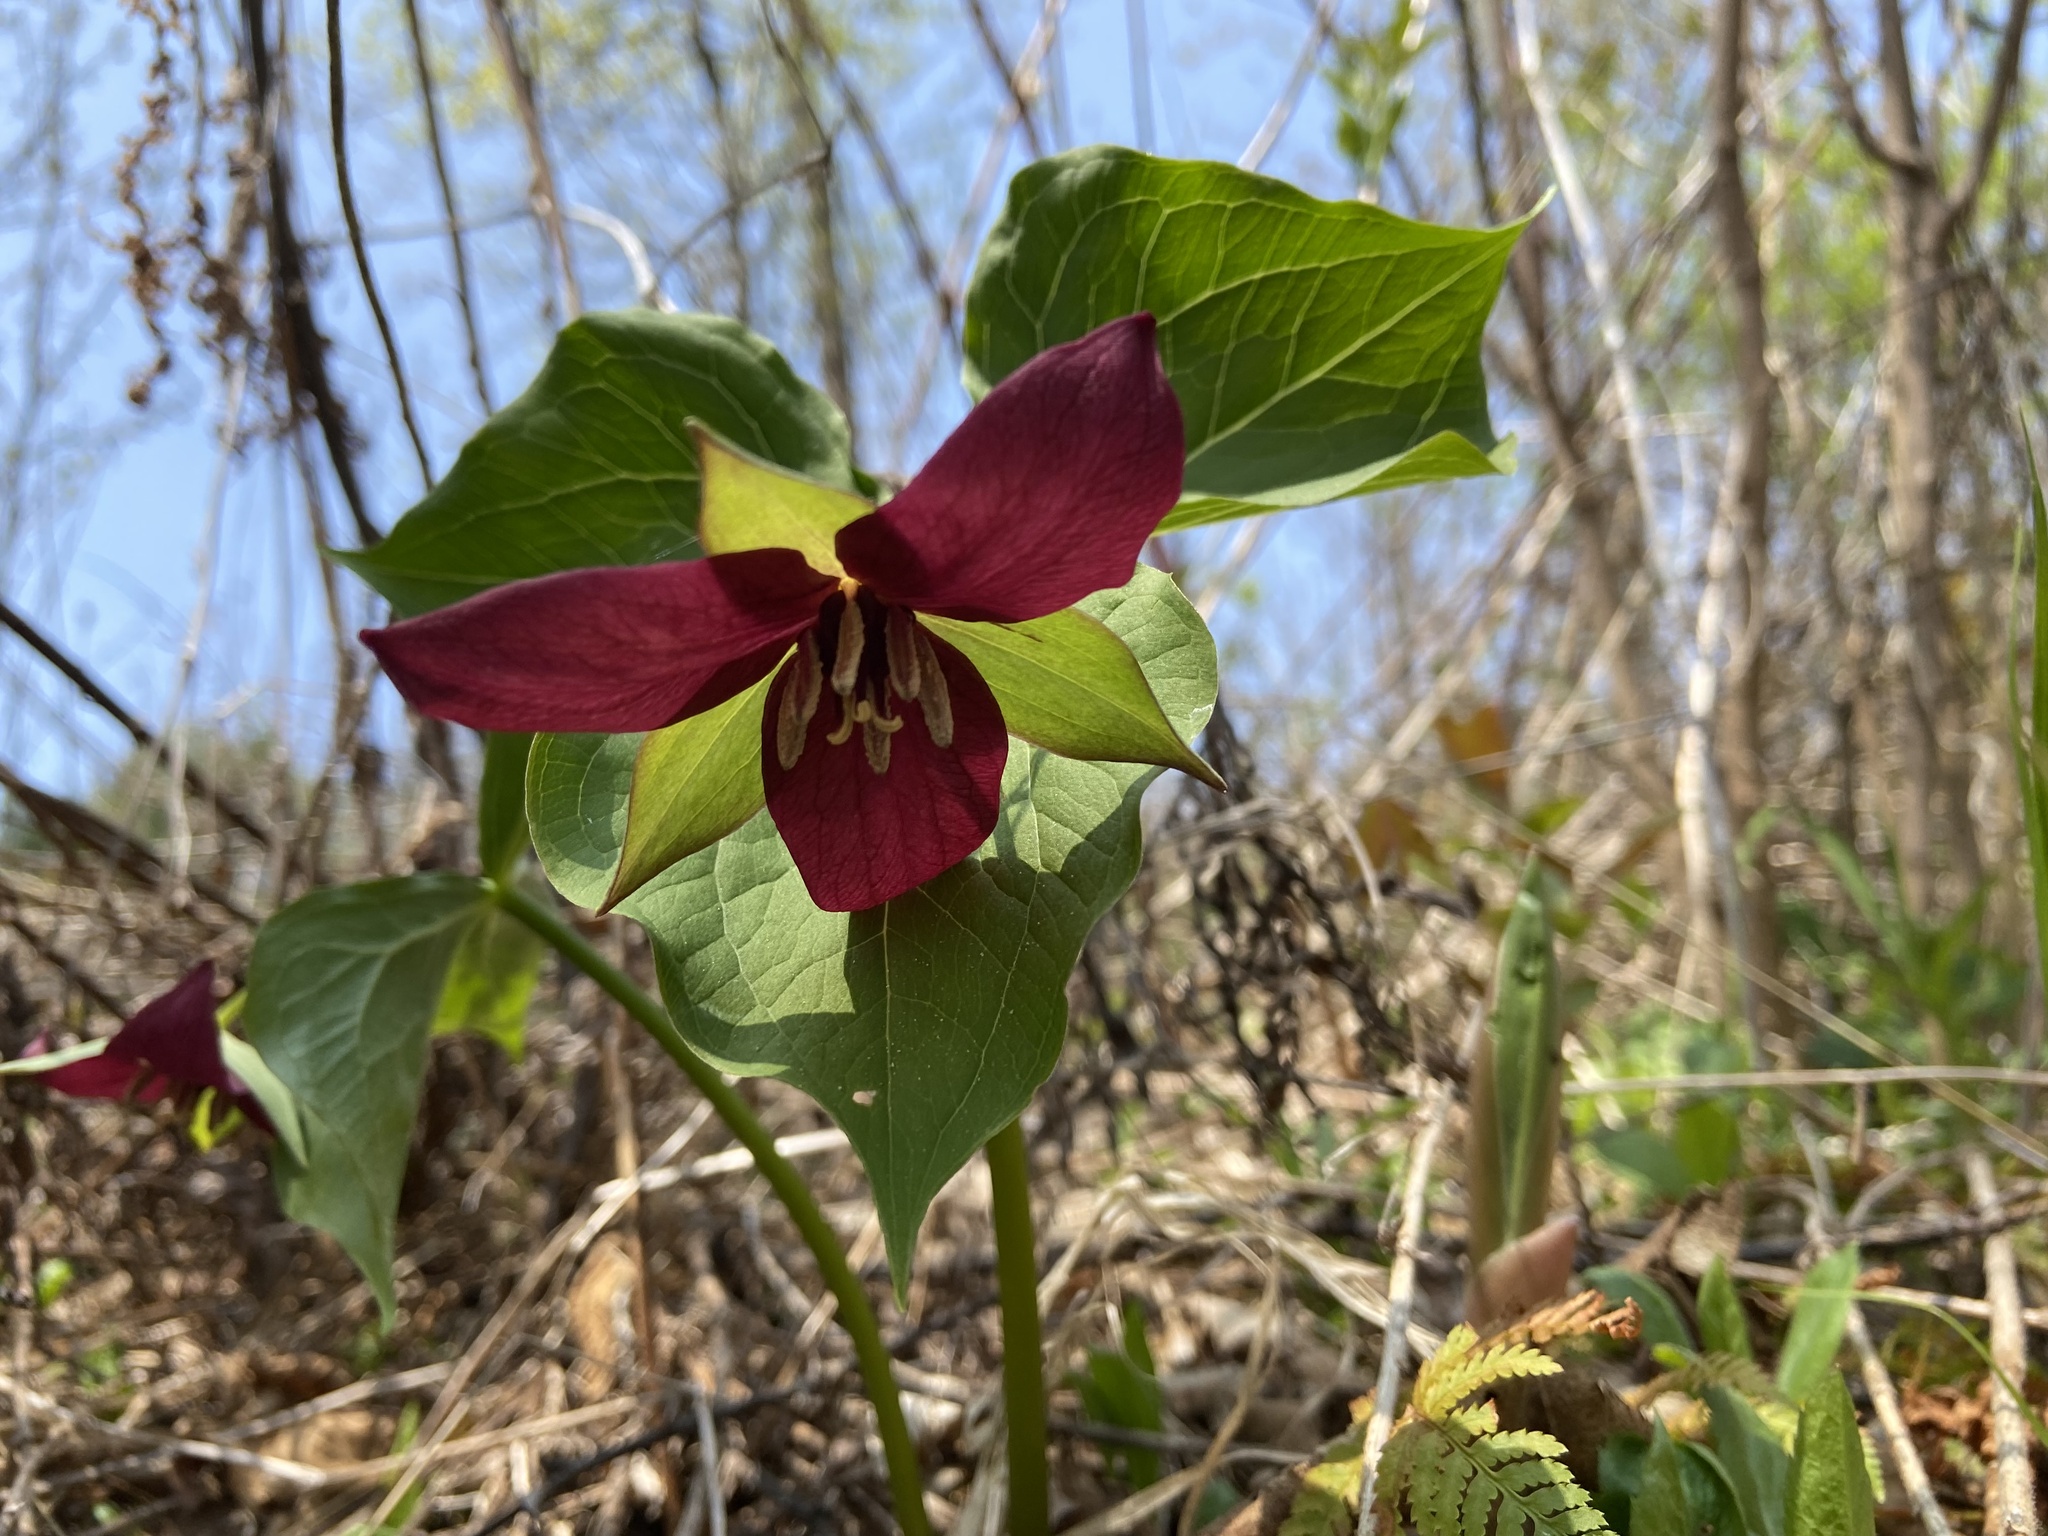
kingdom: Plantae
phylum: Tracheophyta
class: Liliopsida
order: Liliales
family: Melanthiaceae
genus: Trillium
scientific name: Trillium erectum
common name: Purple trillium
